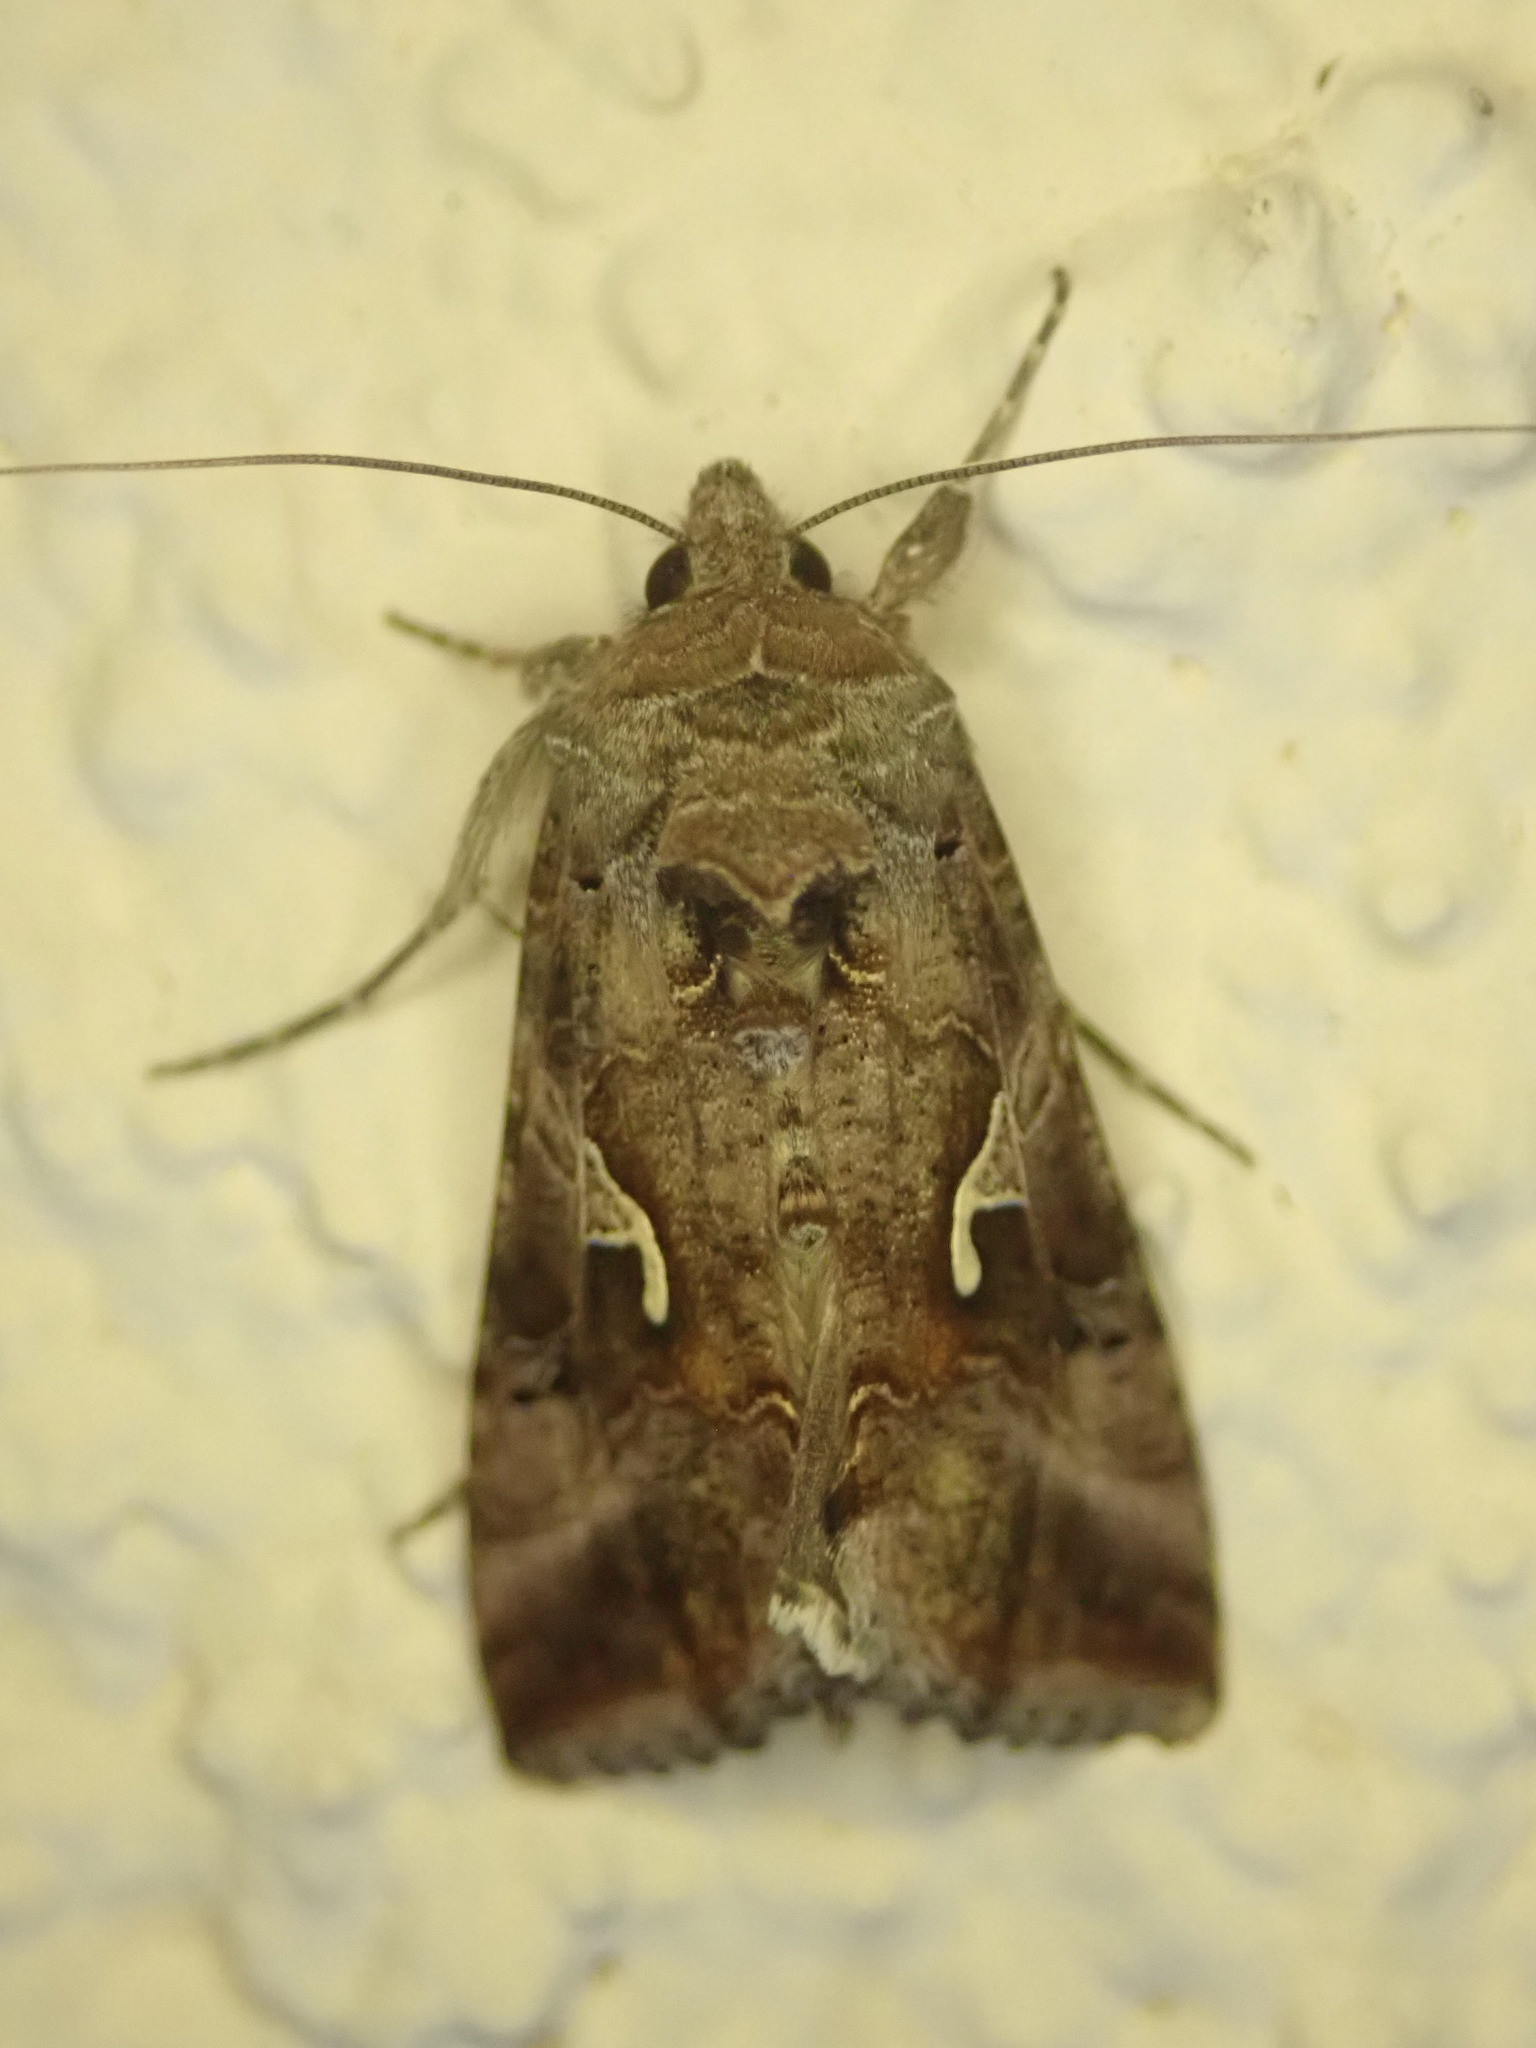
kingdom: Animalia
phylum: Arthropoda
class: Insecta
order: Lepidoptera
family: Noctuidae
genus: Autographa
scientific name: Autographa gamma
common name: Silver y
